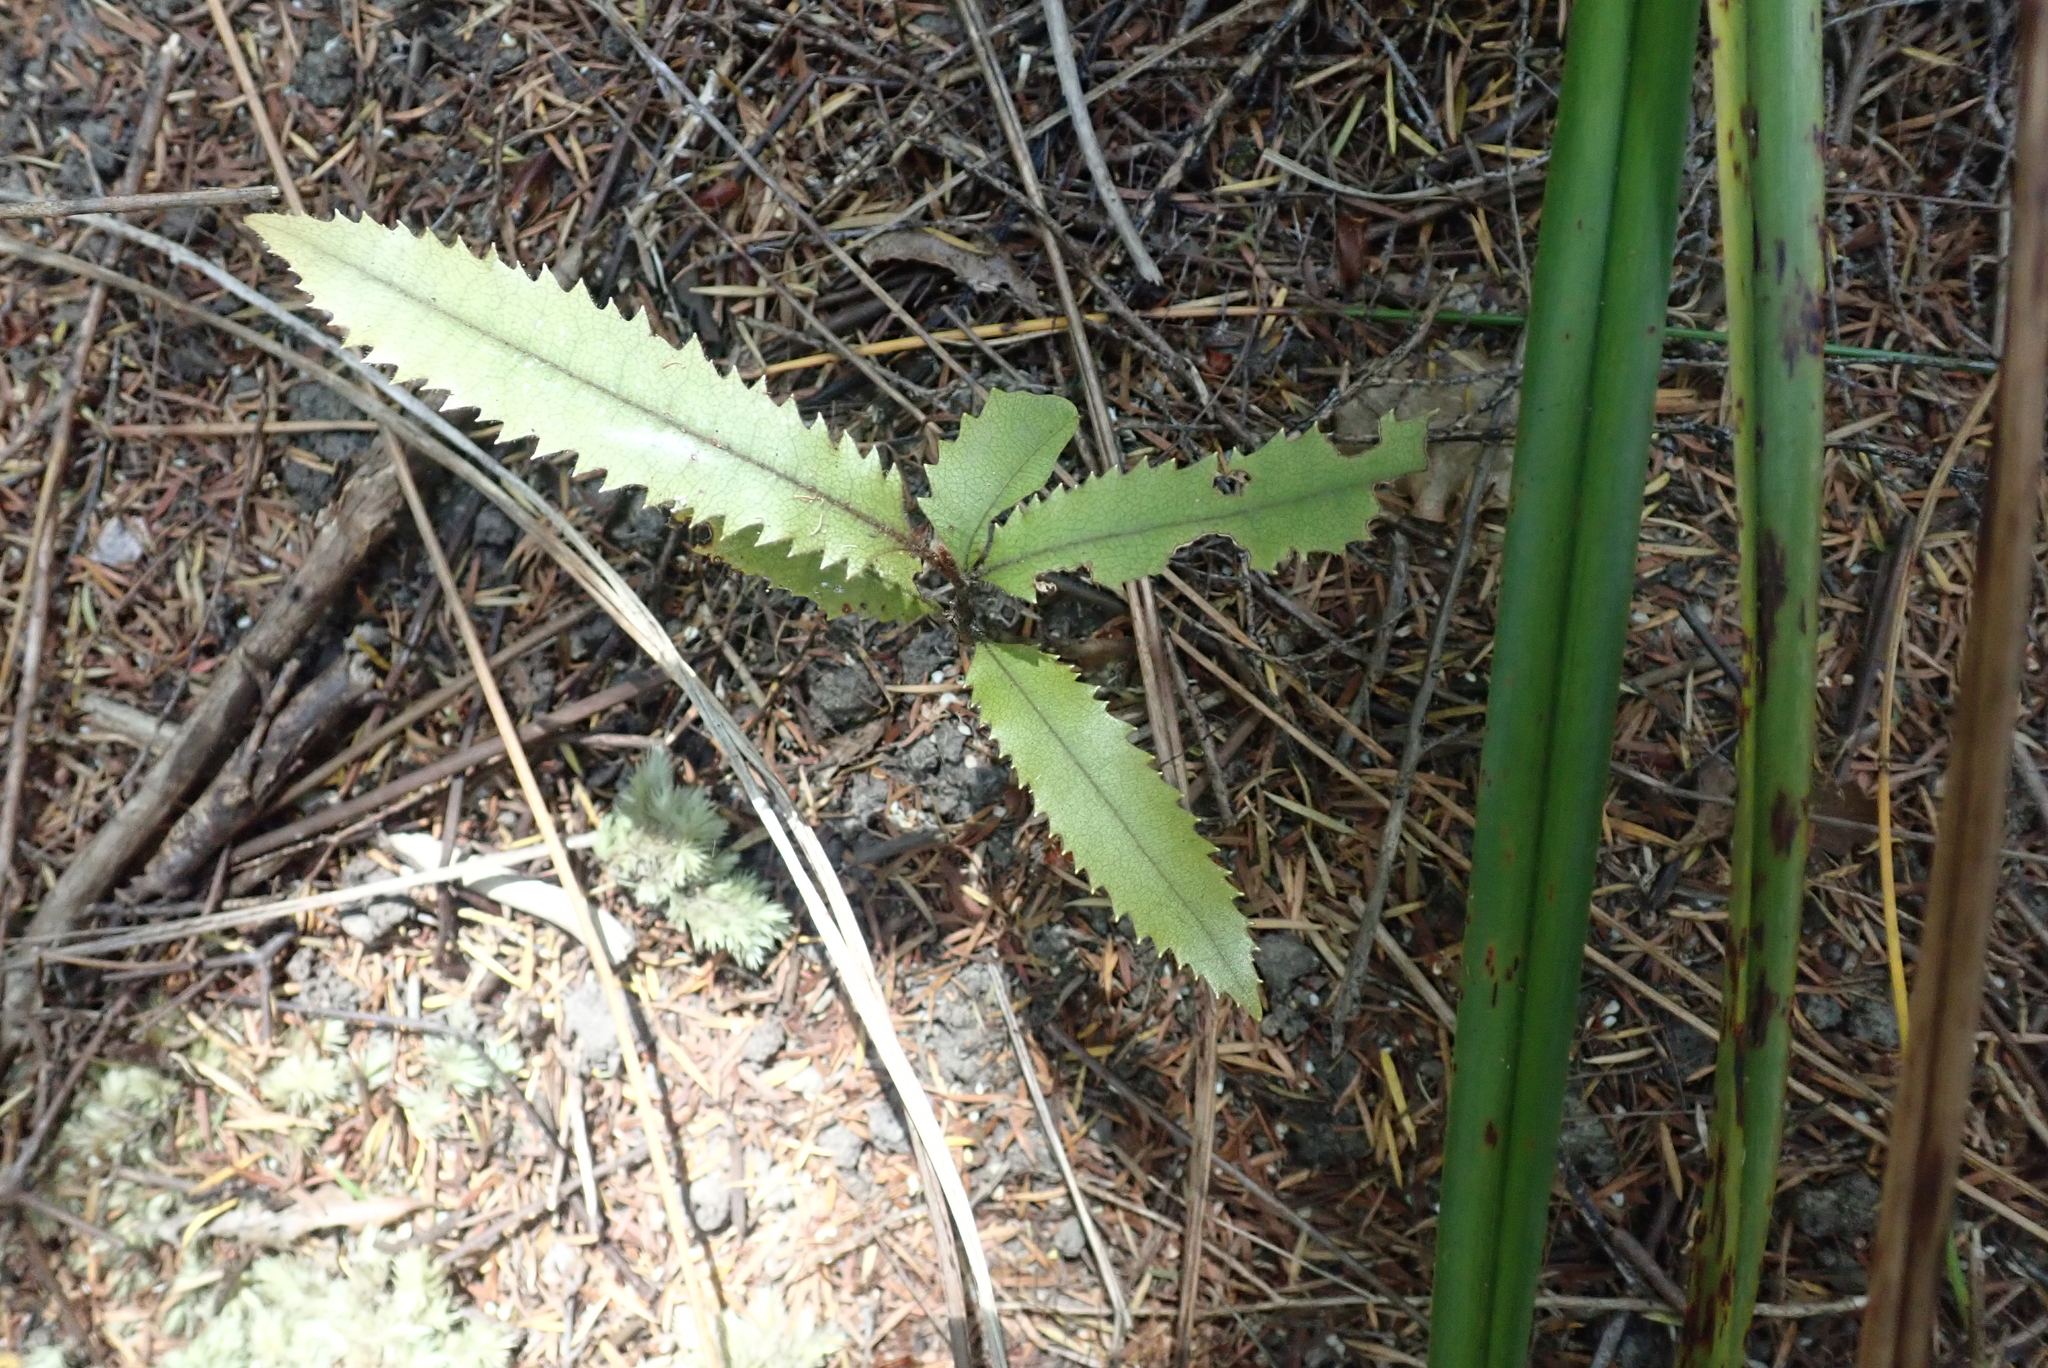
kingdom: Plantae
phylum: Tracheophyta
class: Magnoliopsida
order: Proteales
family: Proteaceae
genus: Knightia
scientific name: Knightia excelsa
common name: New zealand-honeysuckle
